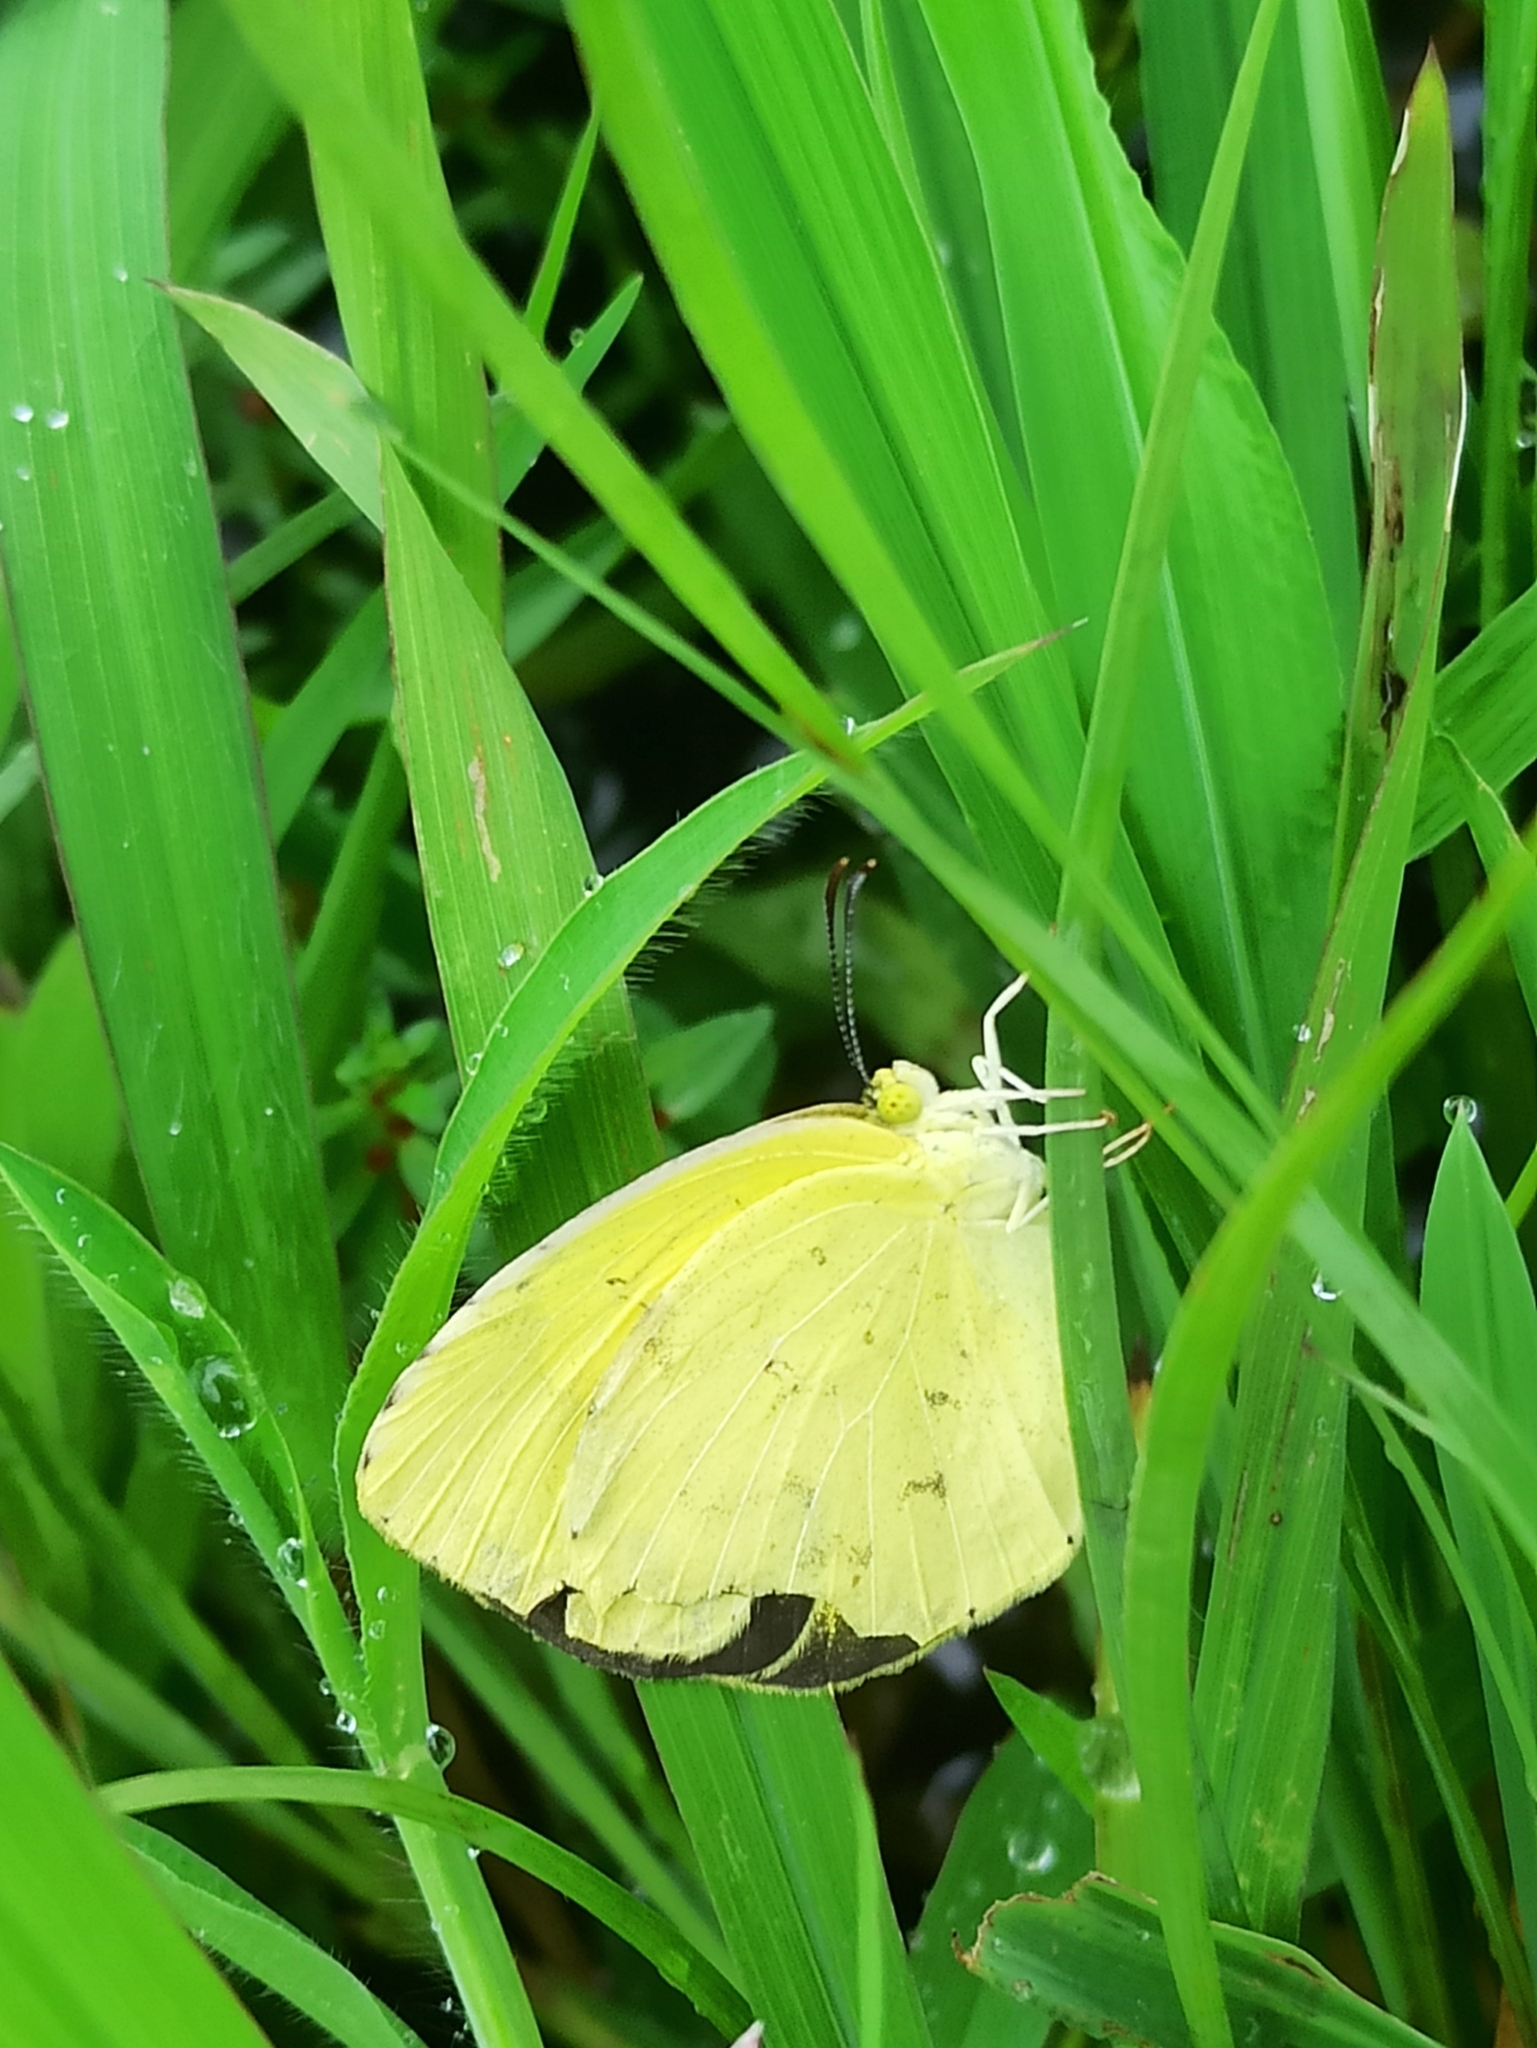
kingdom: Animalia
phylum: Arthropoda
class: Insecta
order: Lepidoptera
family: Pieridae
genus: Eurema
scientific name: Eurema hecabe
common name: Pale grass yellow
